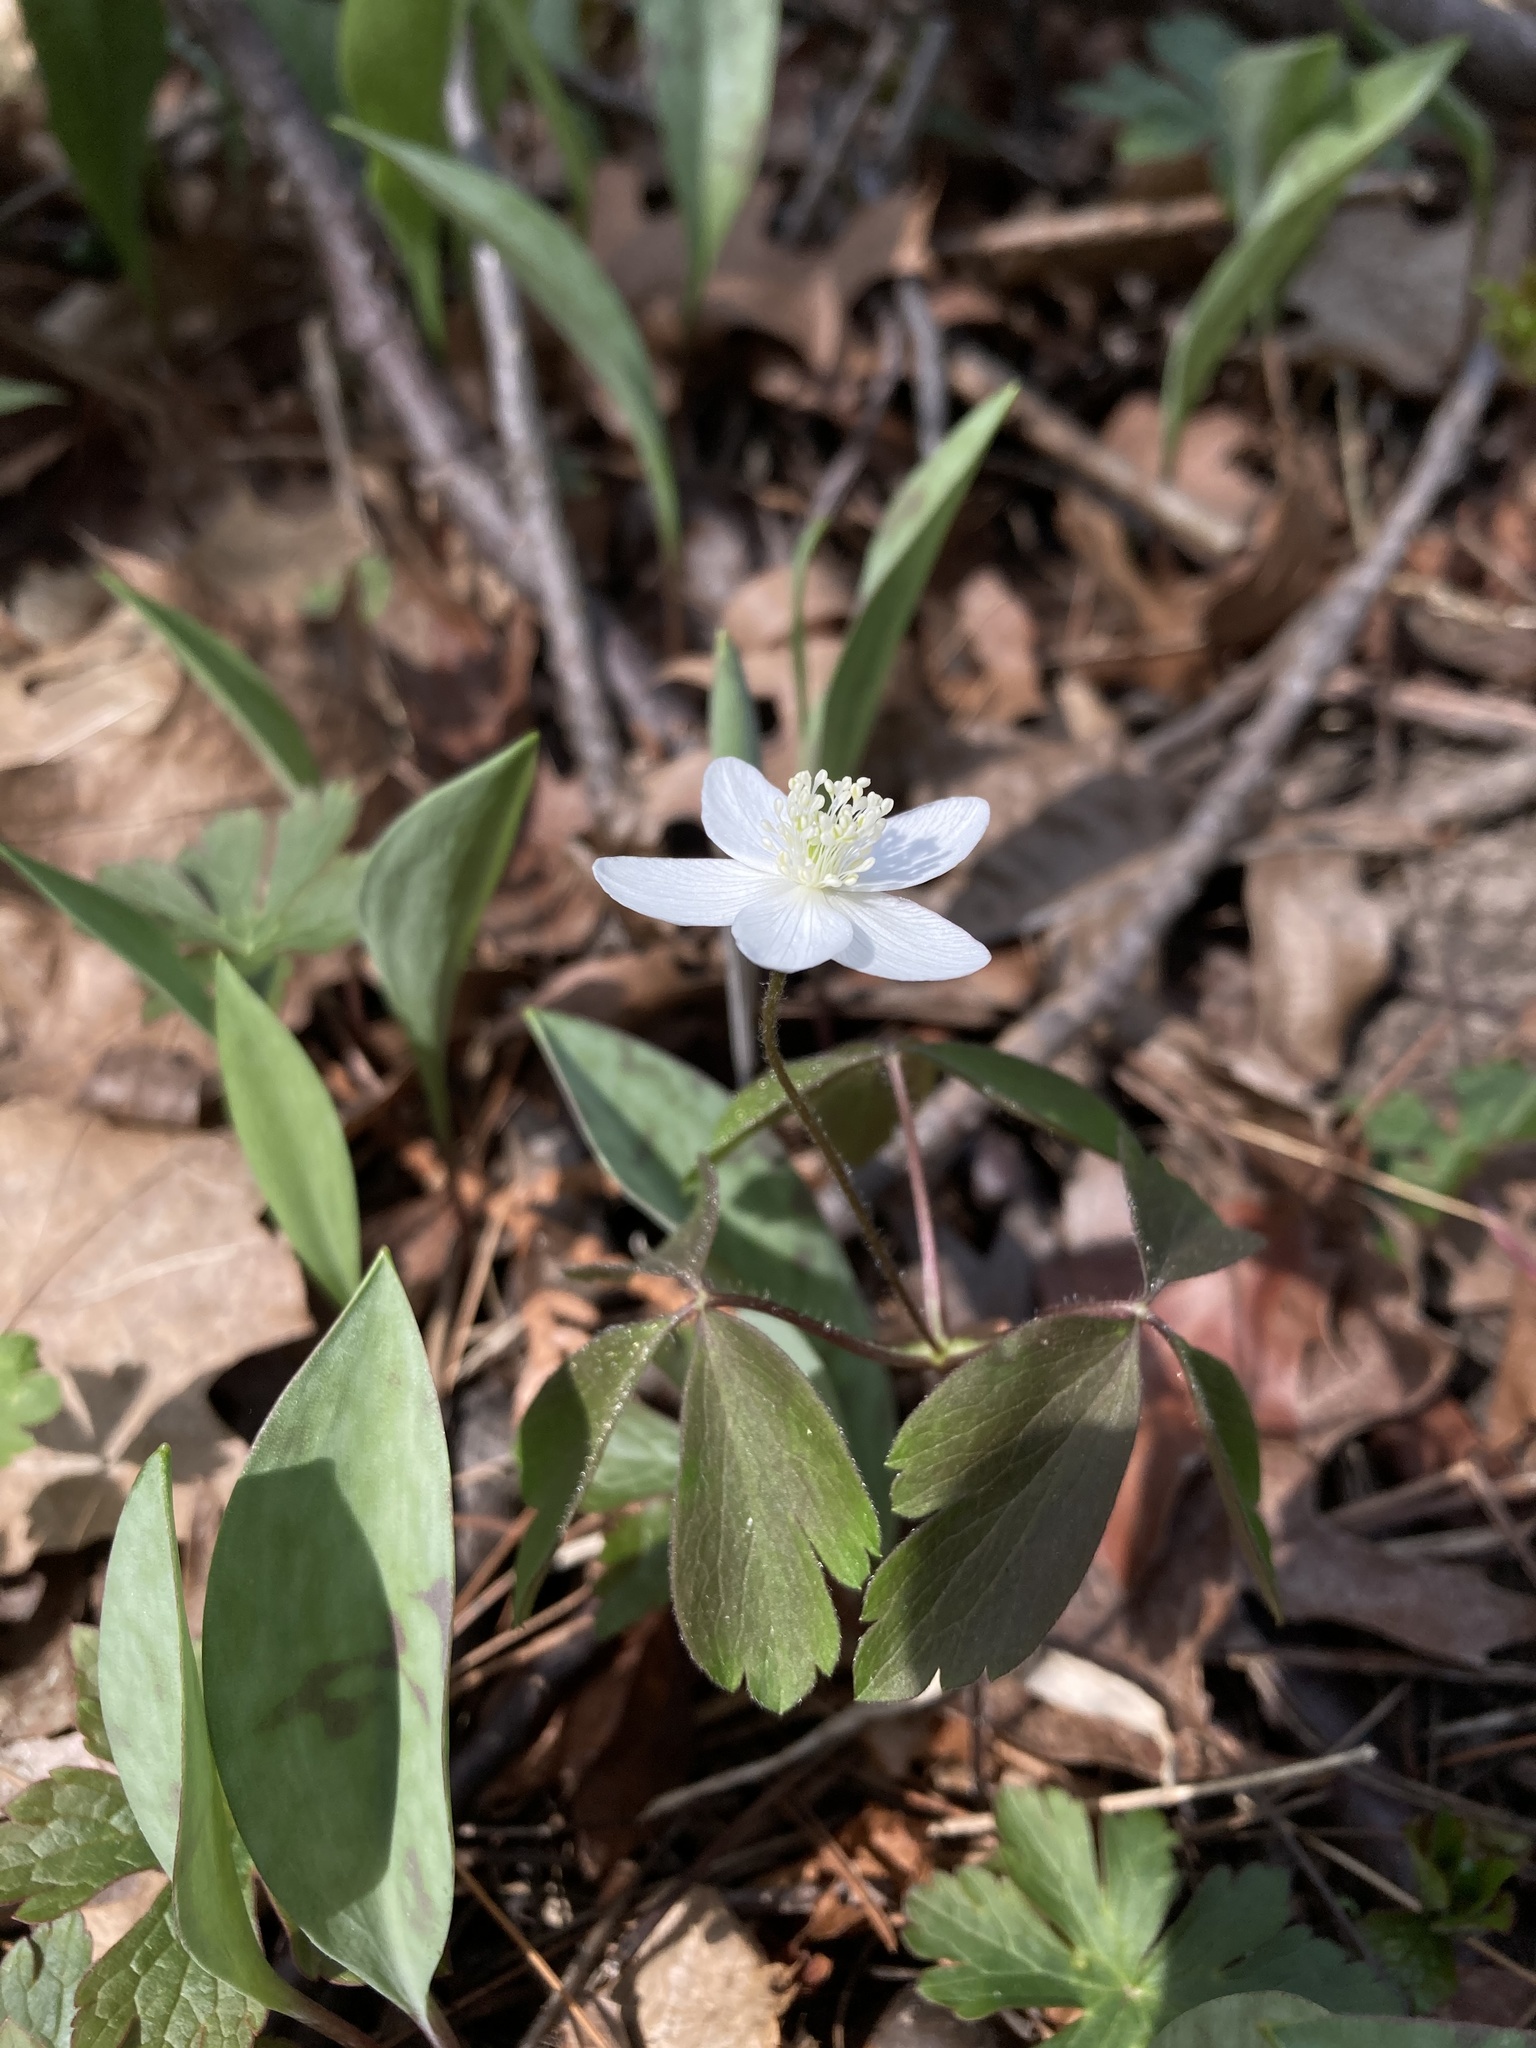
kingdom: Plantae
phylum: Tracheophyta
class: Magnoliopsida
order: Ranunculales
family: Ranunculaceae
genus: Anemone
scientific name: Anemone quinquefolia
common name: Wood anemone
